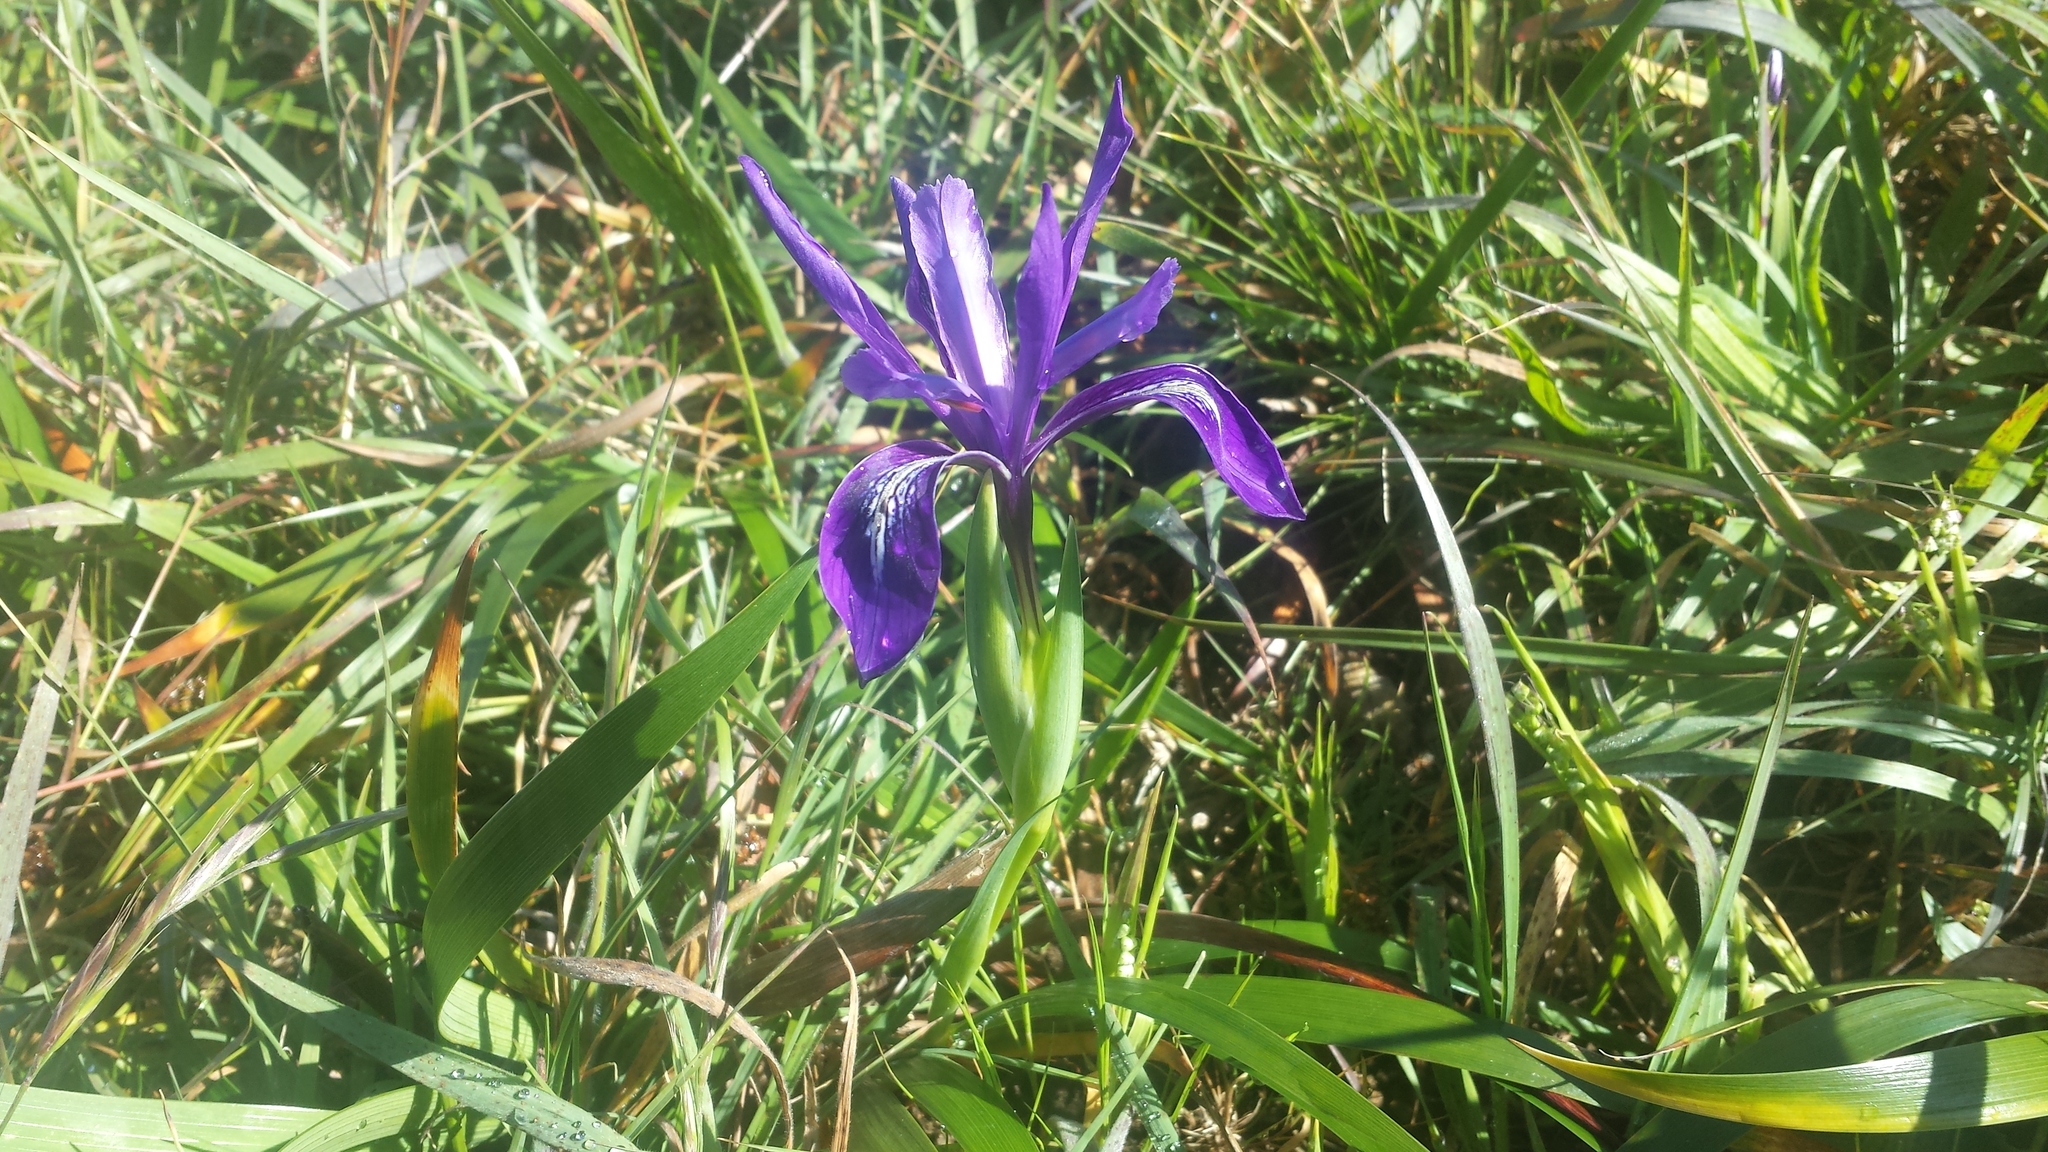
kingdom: Plantae
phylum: Tracheophyta
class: Liliopsida
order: Asparagales
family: Iridaceae
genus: Iris
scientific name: Iris douglasiana
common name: Marin iris
